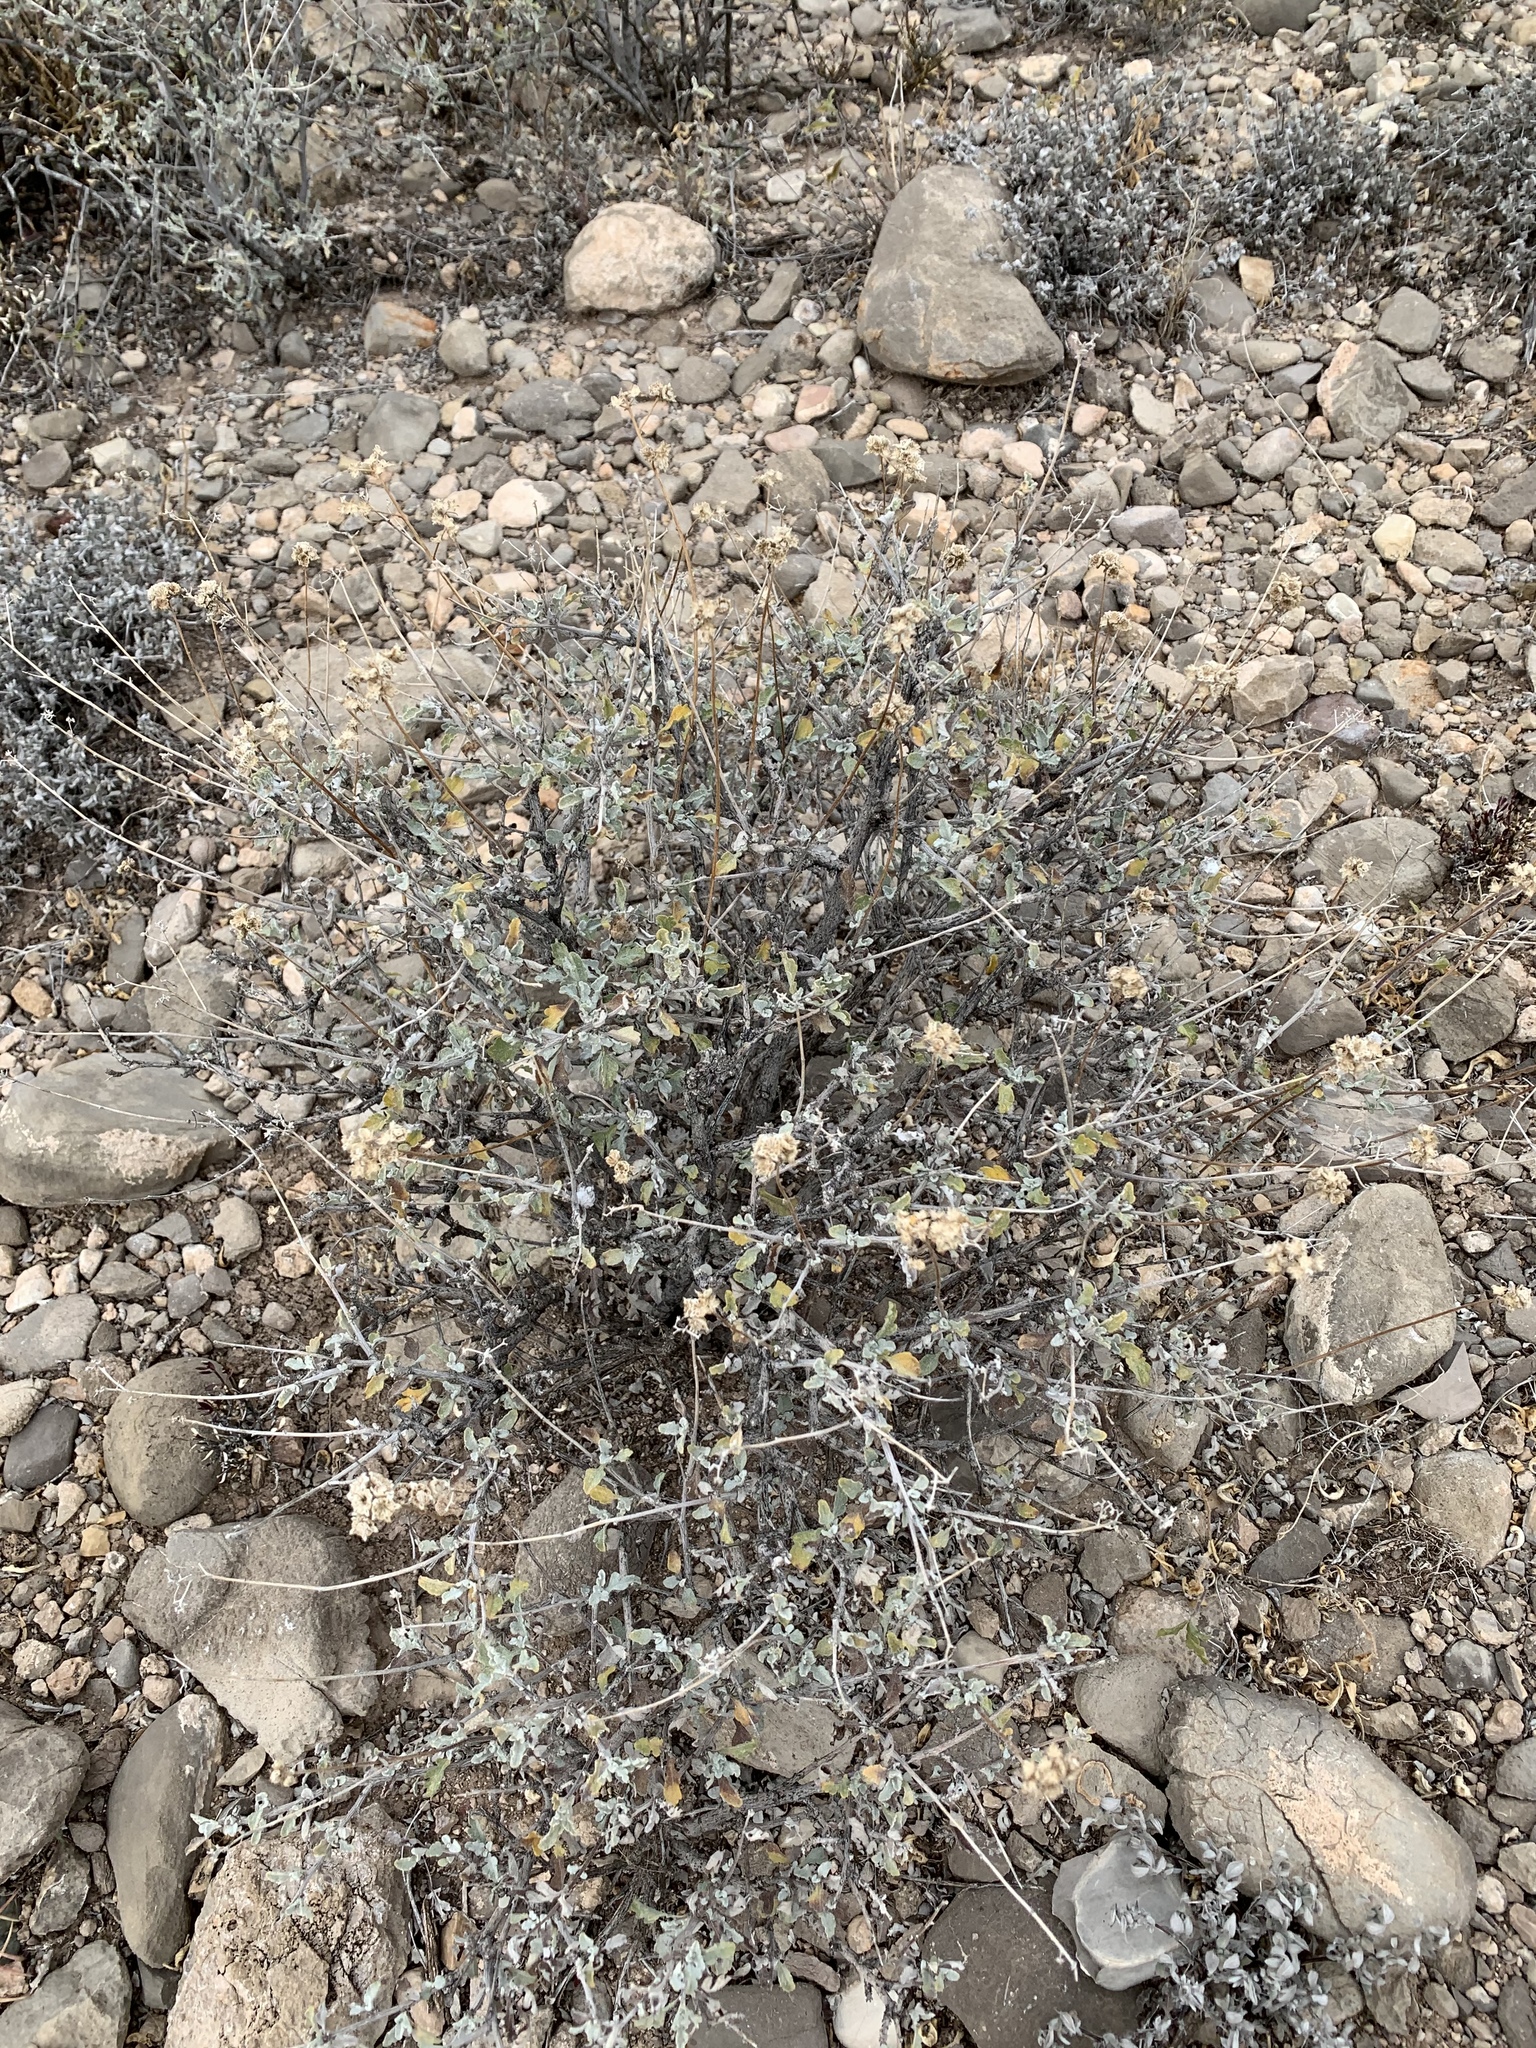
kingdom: Plantae
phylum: Tracheophyta
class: Magnoliopsida
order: Asterales
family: Asteraceae
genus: Parthenium
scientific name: Parthenium incanum
